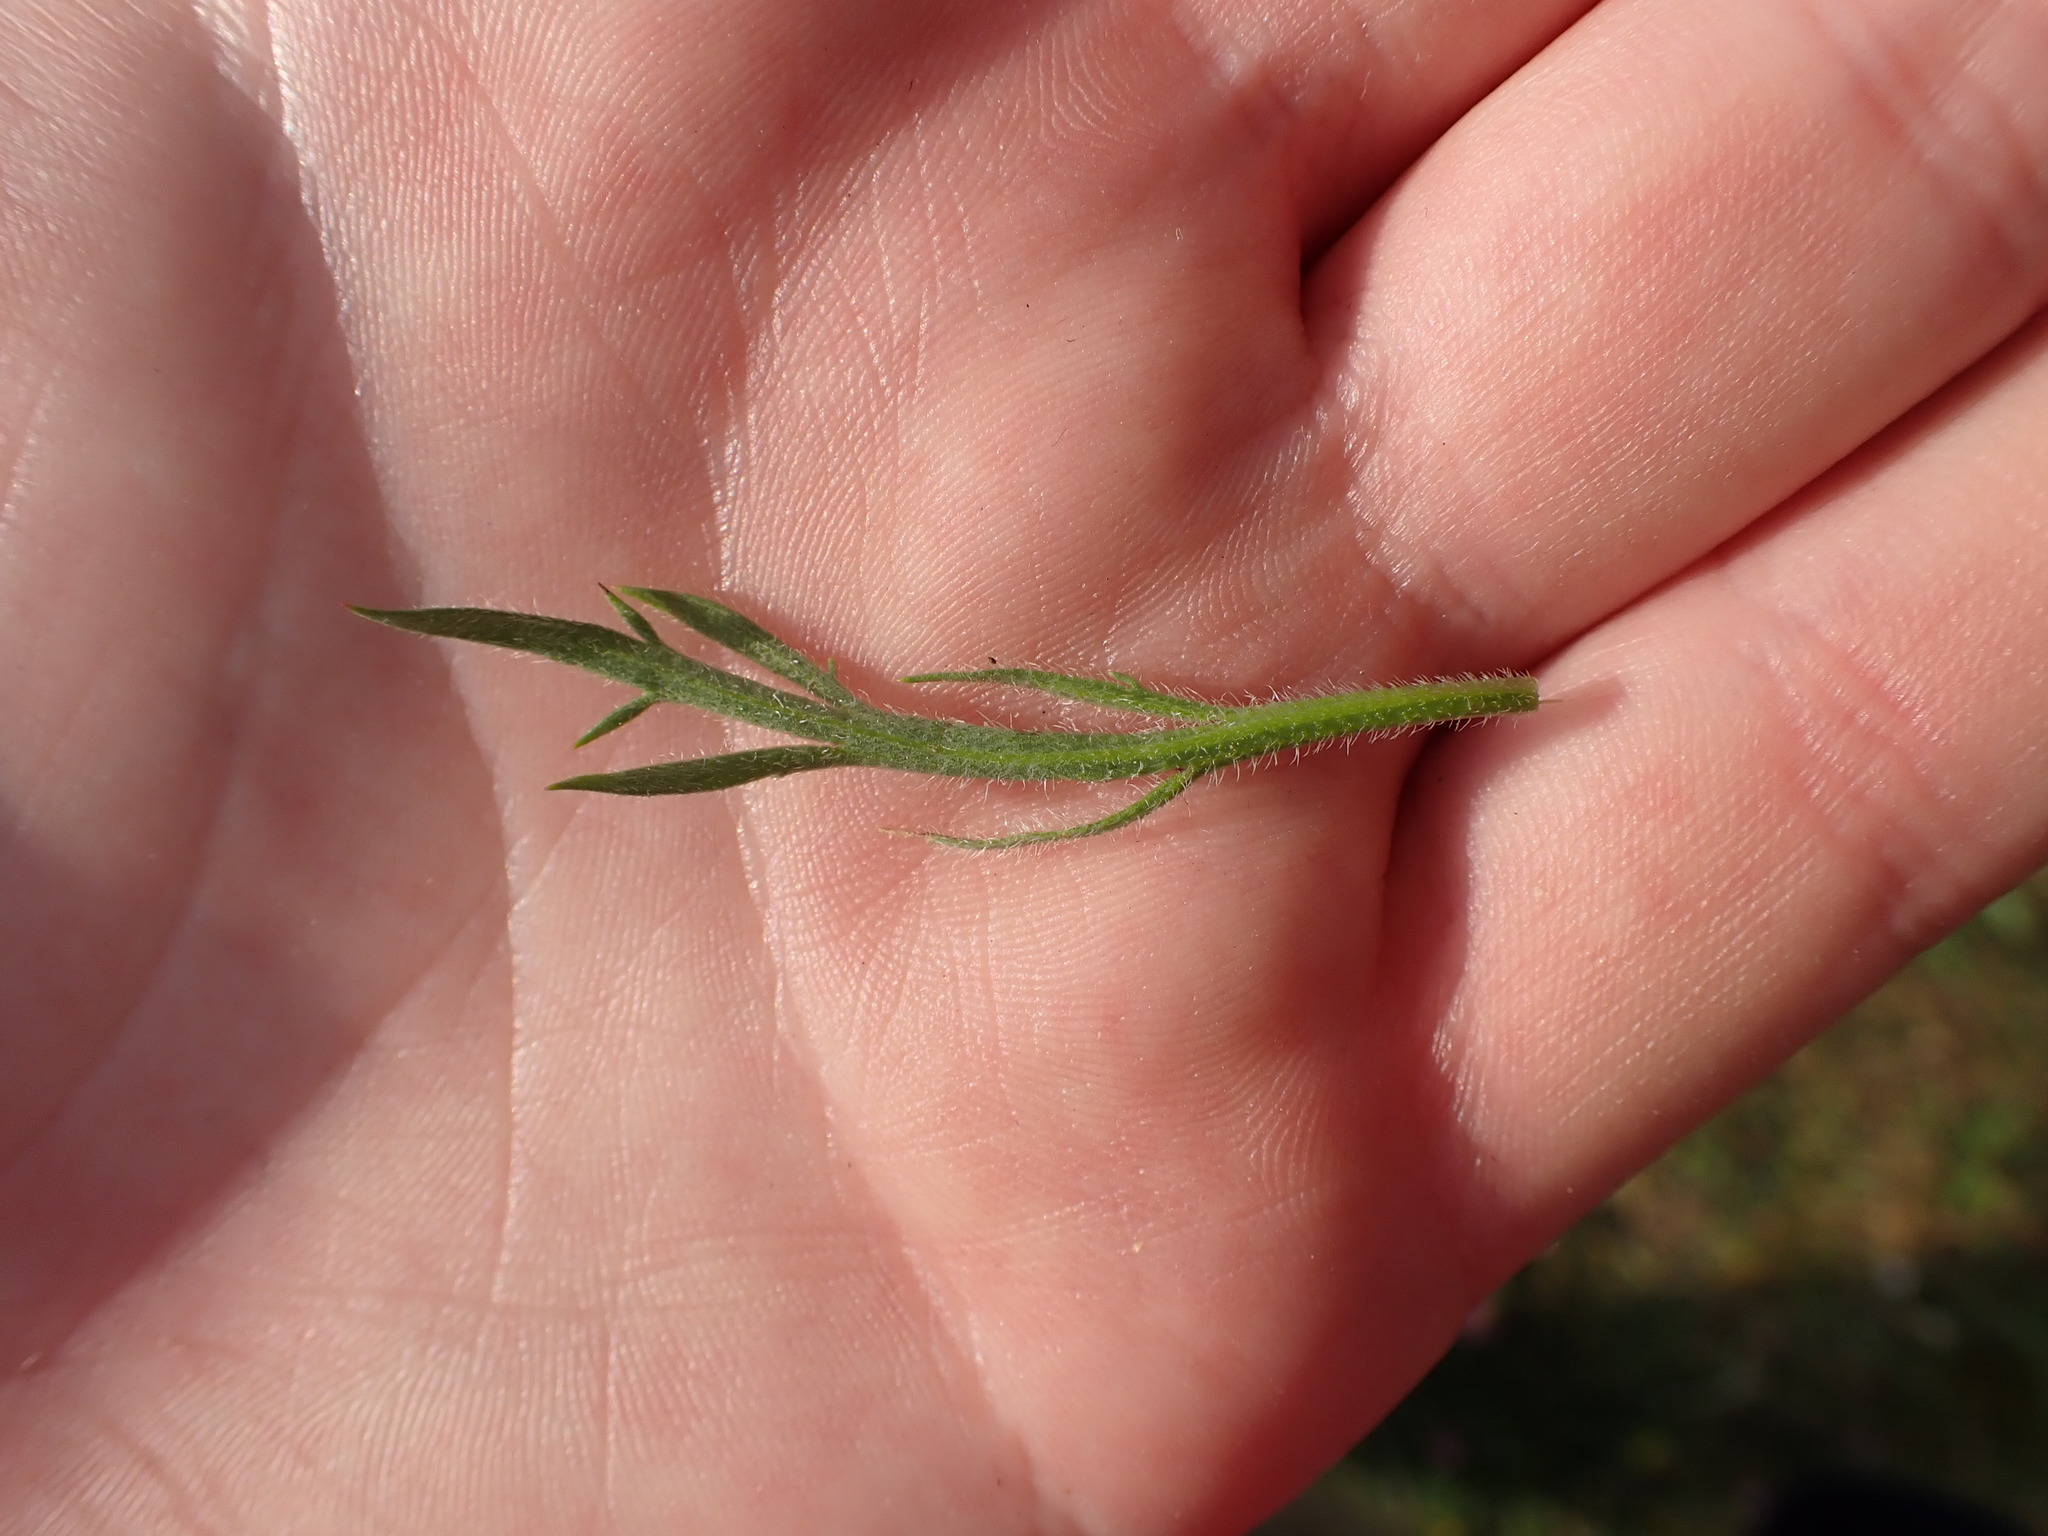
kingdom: Plantae
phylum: Tracheophyta
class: Magnoliopsida
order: Lamiales
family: Plantaginaceae
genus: Plantago
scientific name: Plantago coronopus
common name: Buck's-horn plantain
